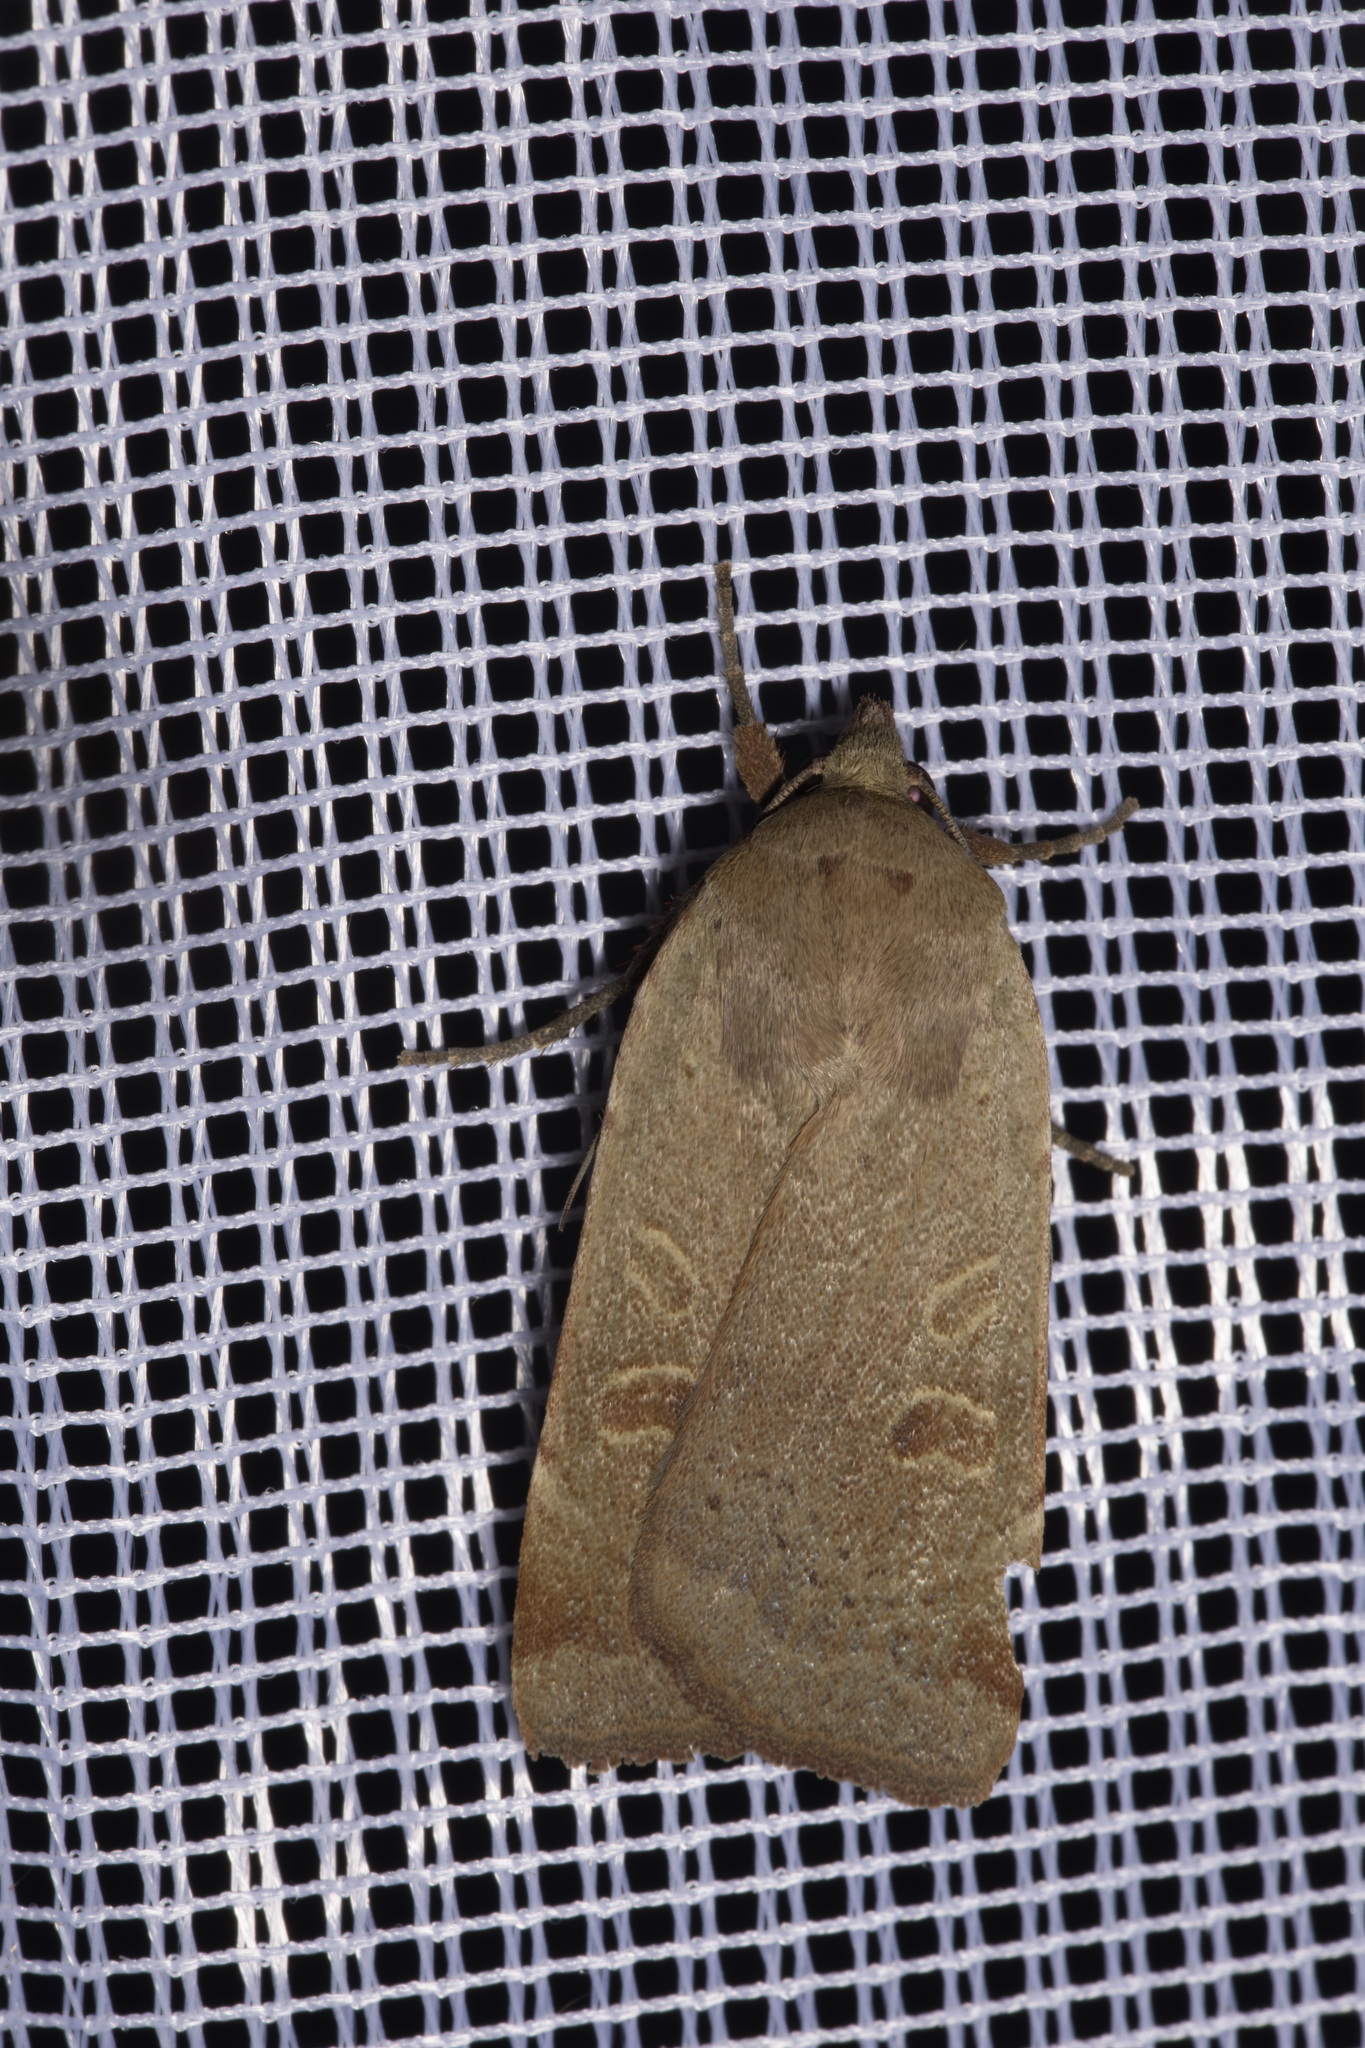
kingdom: Animalia
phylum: Arthropoda
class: Insecta
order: Lepidoptera
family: Noctuidae
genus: Noctua
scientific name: Noctua comes
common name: Lesser yellow underwing
